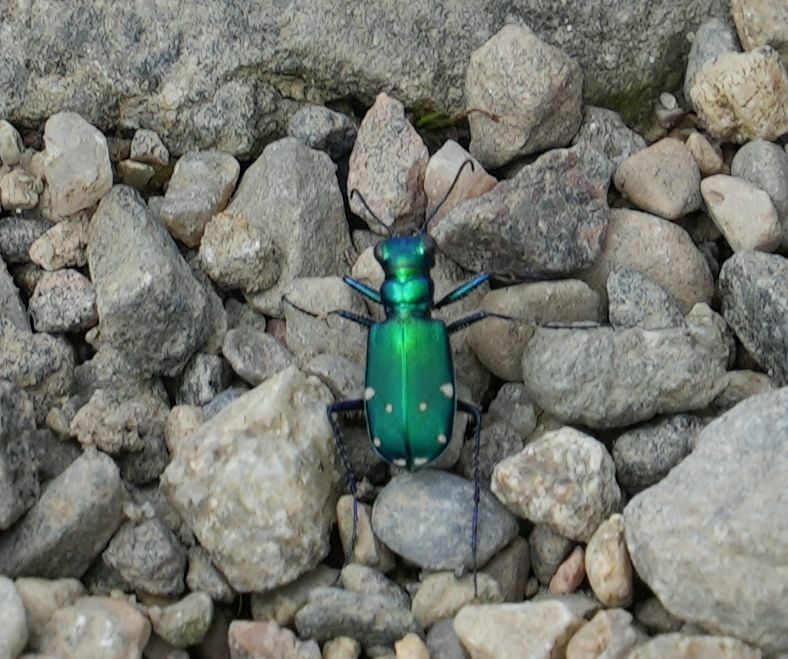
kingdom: Animalia
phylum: Arthropoda
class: Insecta
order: Coleoptera
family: Carabidae
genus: Cicindela
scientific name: Cicindela sexguttata
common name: Six-spotted tiger beetle
